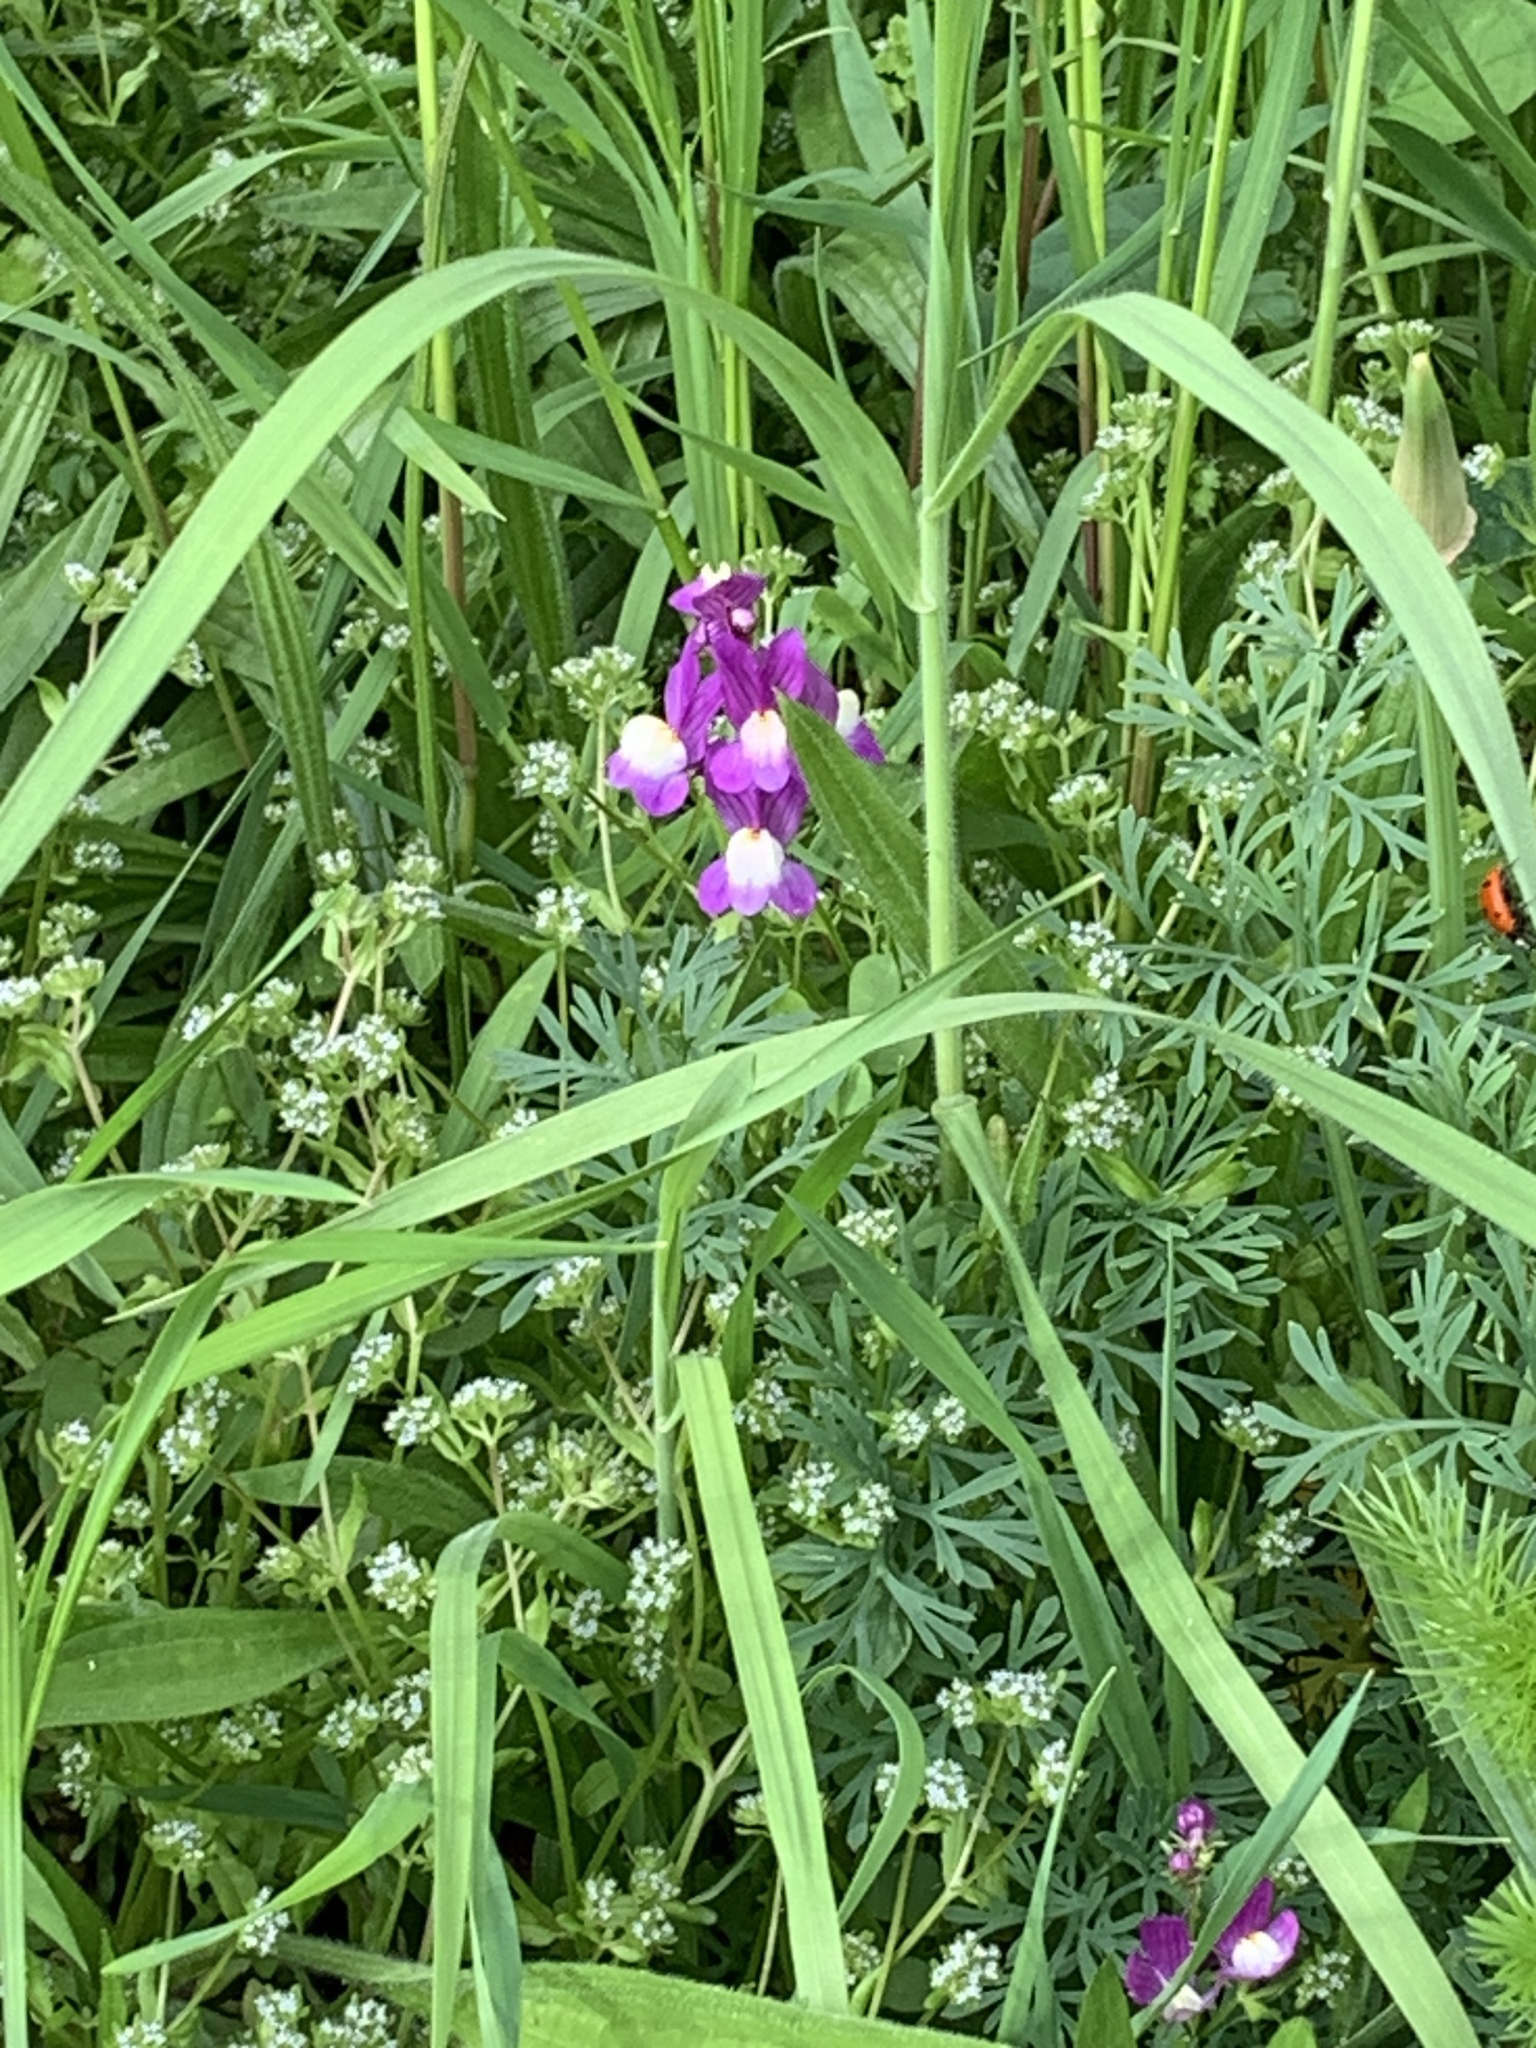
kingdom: Plantae
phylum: Tracheophyta
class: Magnoliopsida
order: Lamiales
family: Plantaginaceae
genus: Linaria
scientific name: Linaria maroccana
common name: Moroccan toadflax
